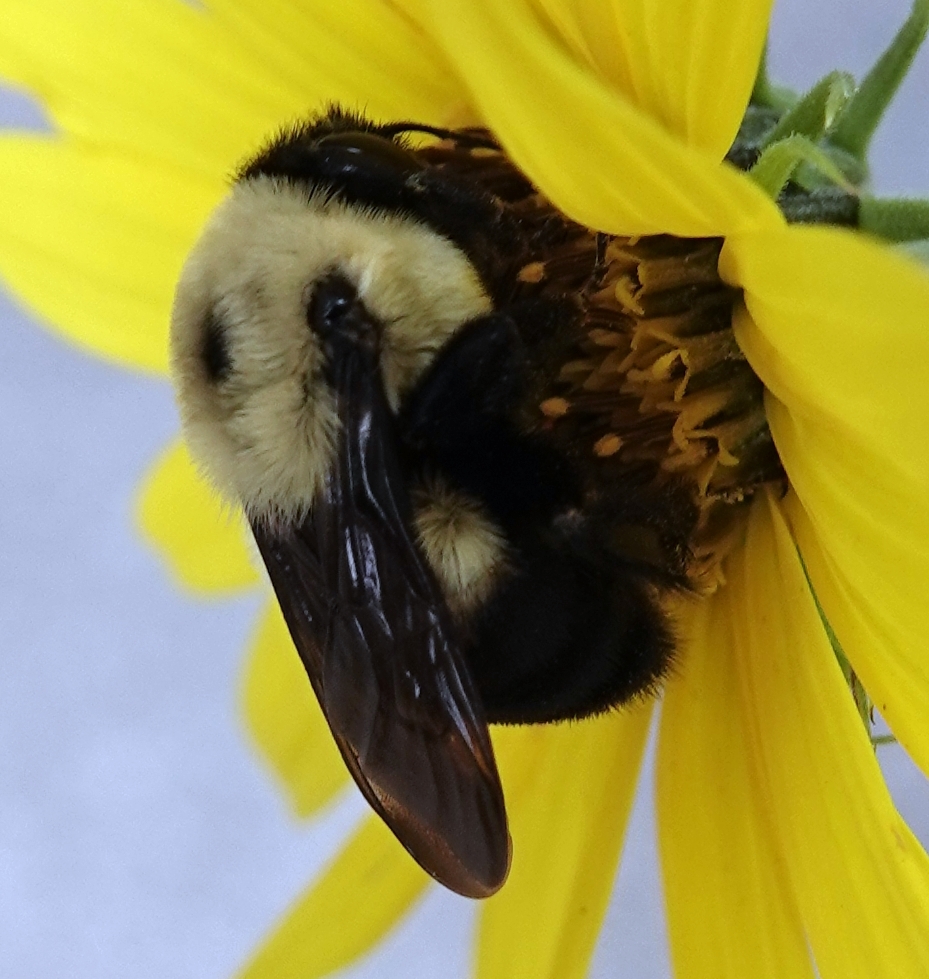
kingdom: Animalia
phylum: Arthropoda
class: Insecta
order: Hymenoptera
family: Apidae
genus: Bombus
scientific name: Bombus griseocollis
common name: Brown-belted bumble bee
